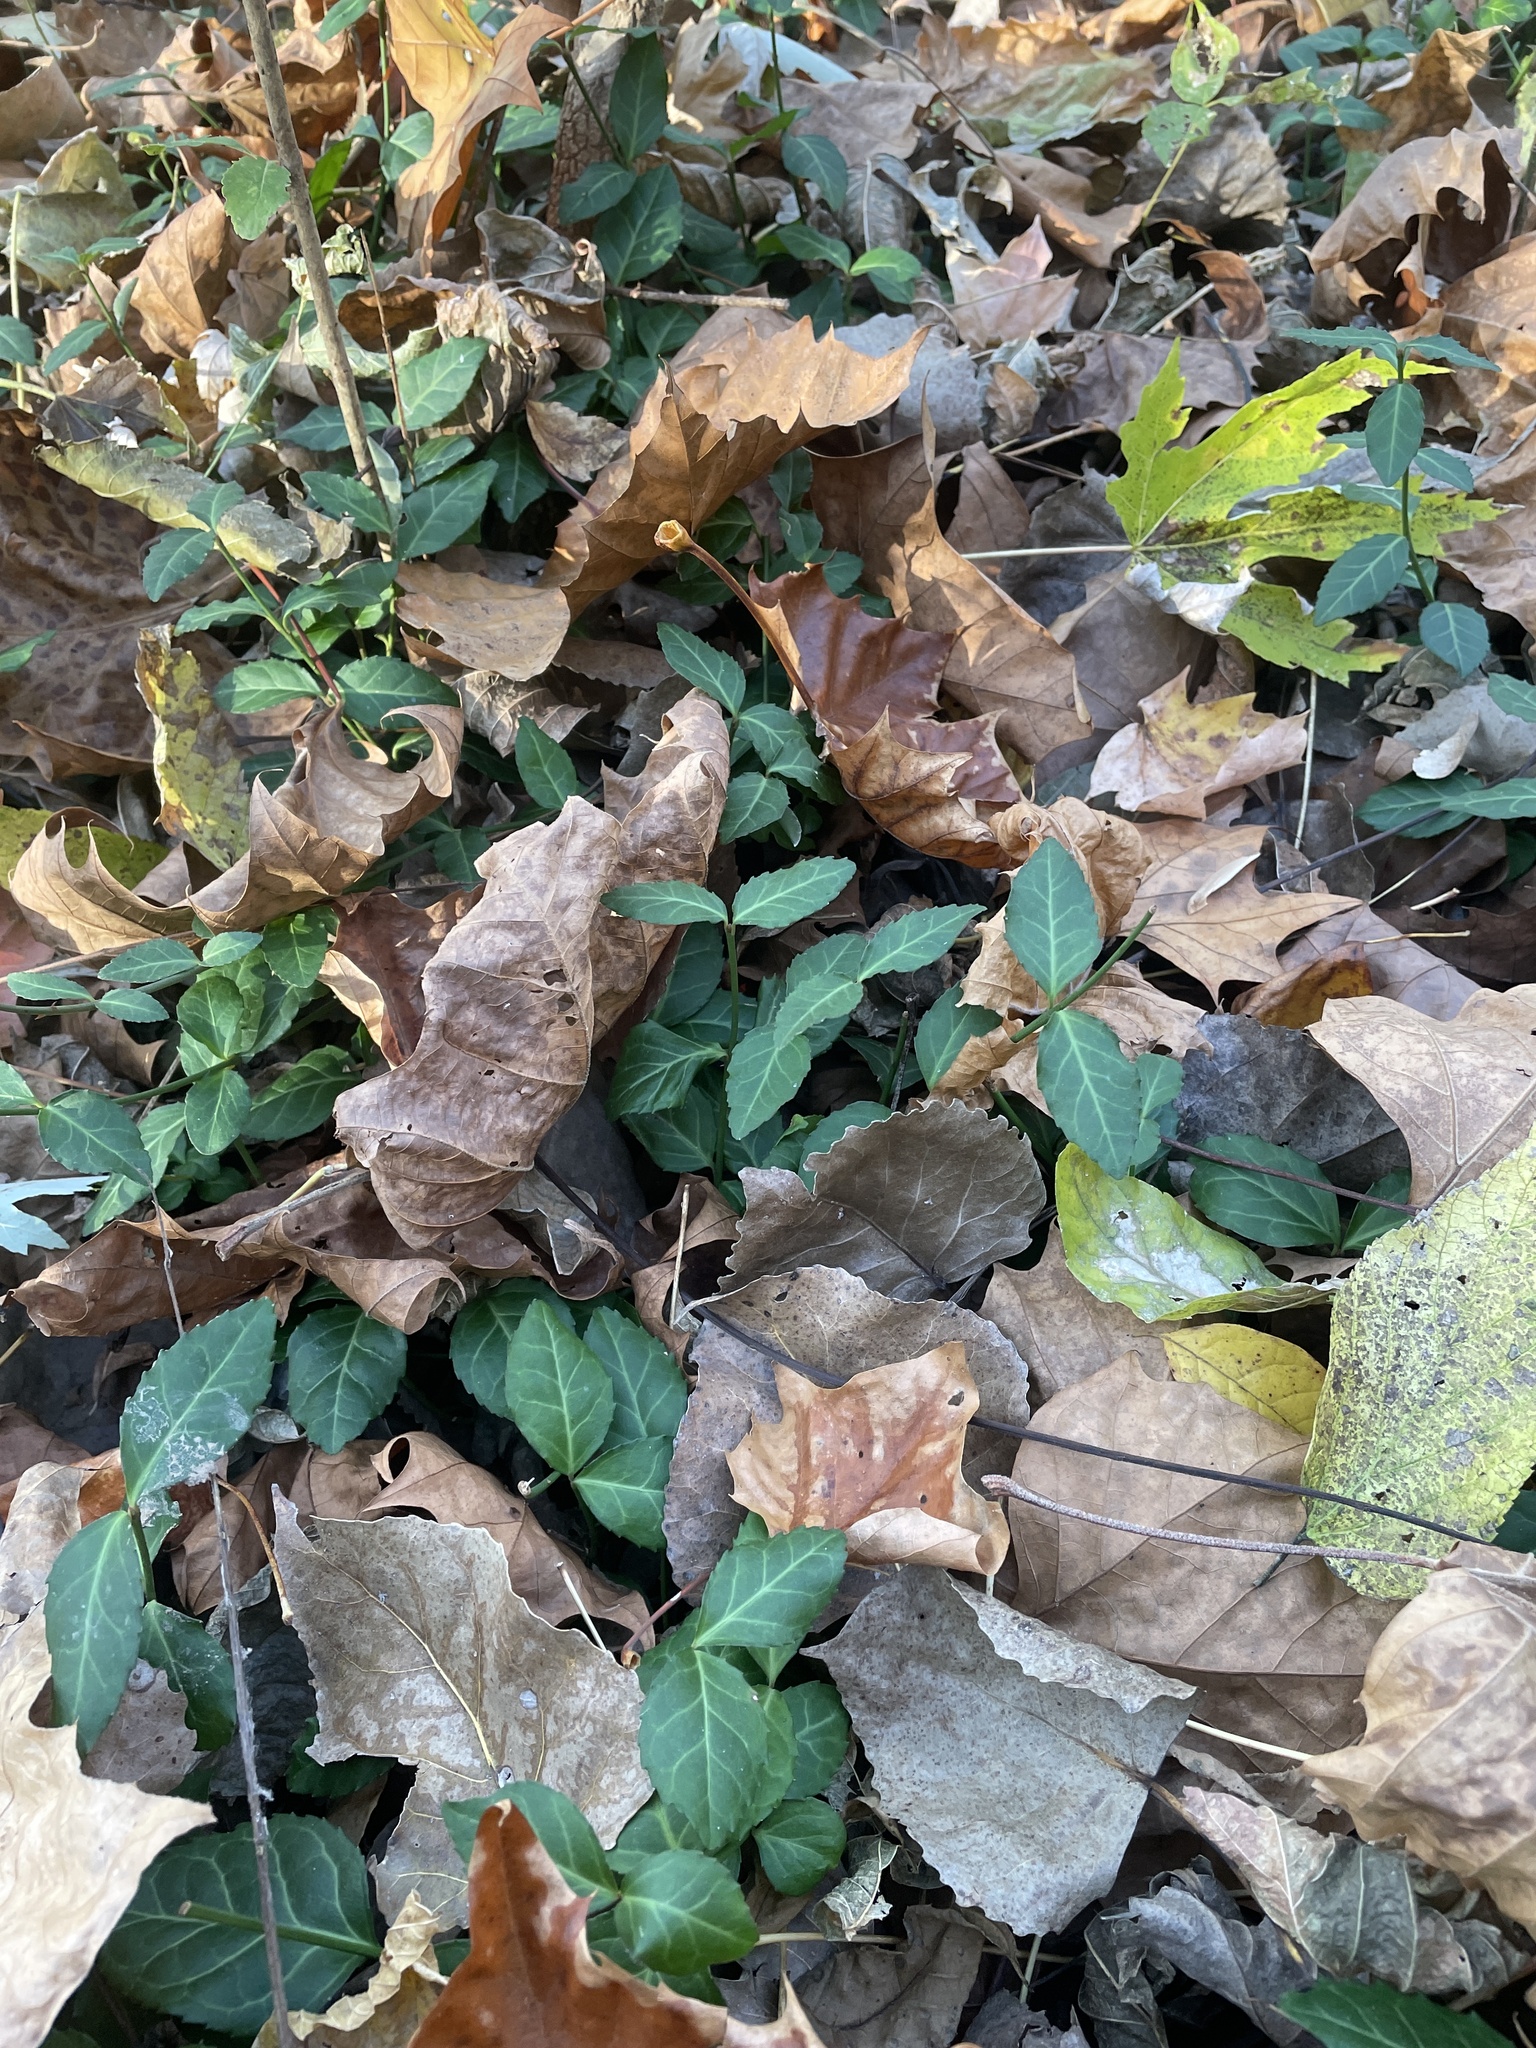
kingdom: Plantae
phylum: Tracheophyta
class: Magnoliopsida
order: Celastrales
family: Celastraceae
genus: Euonymus
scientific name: Euonymus fortunei
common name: Climbing euonymus
